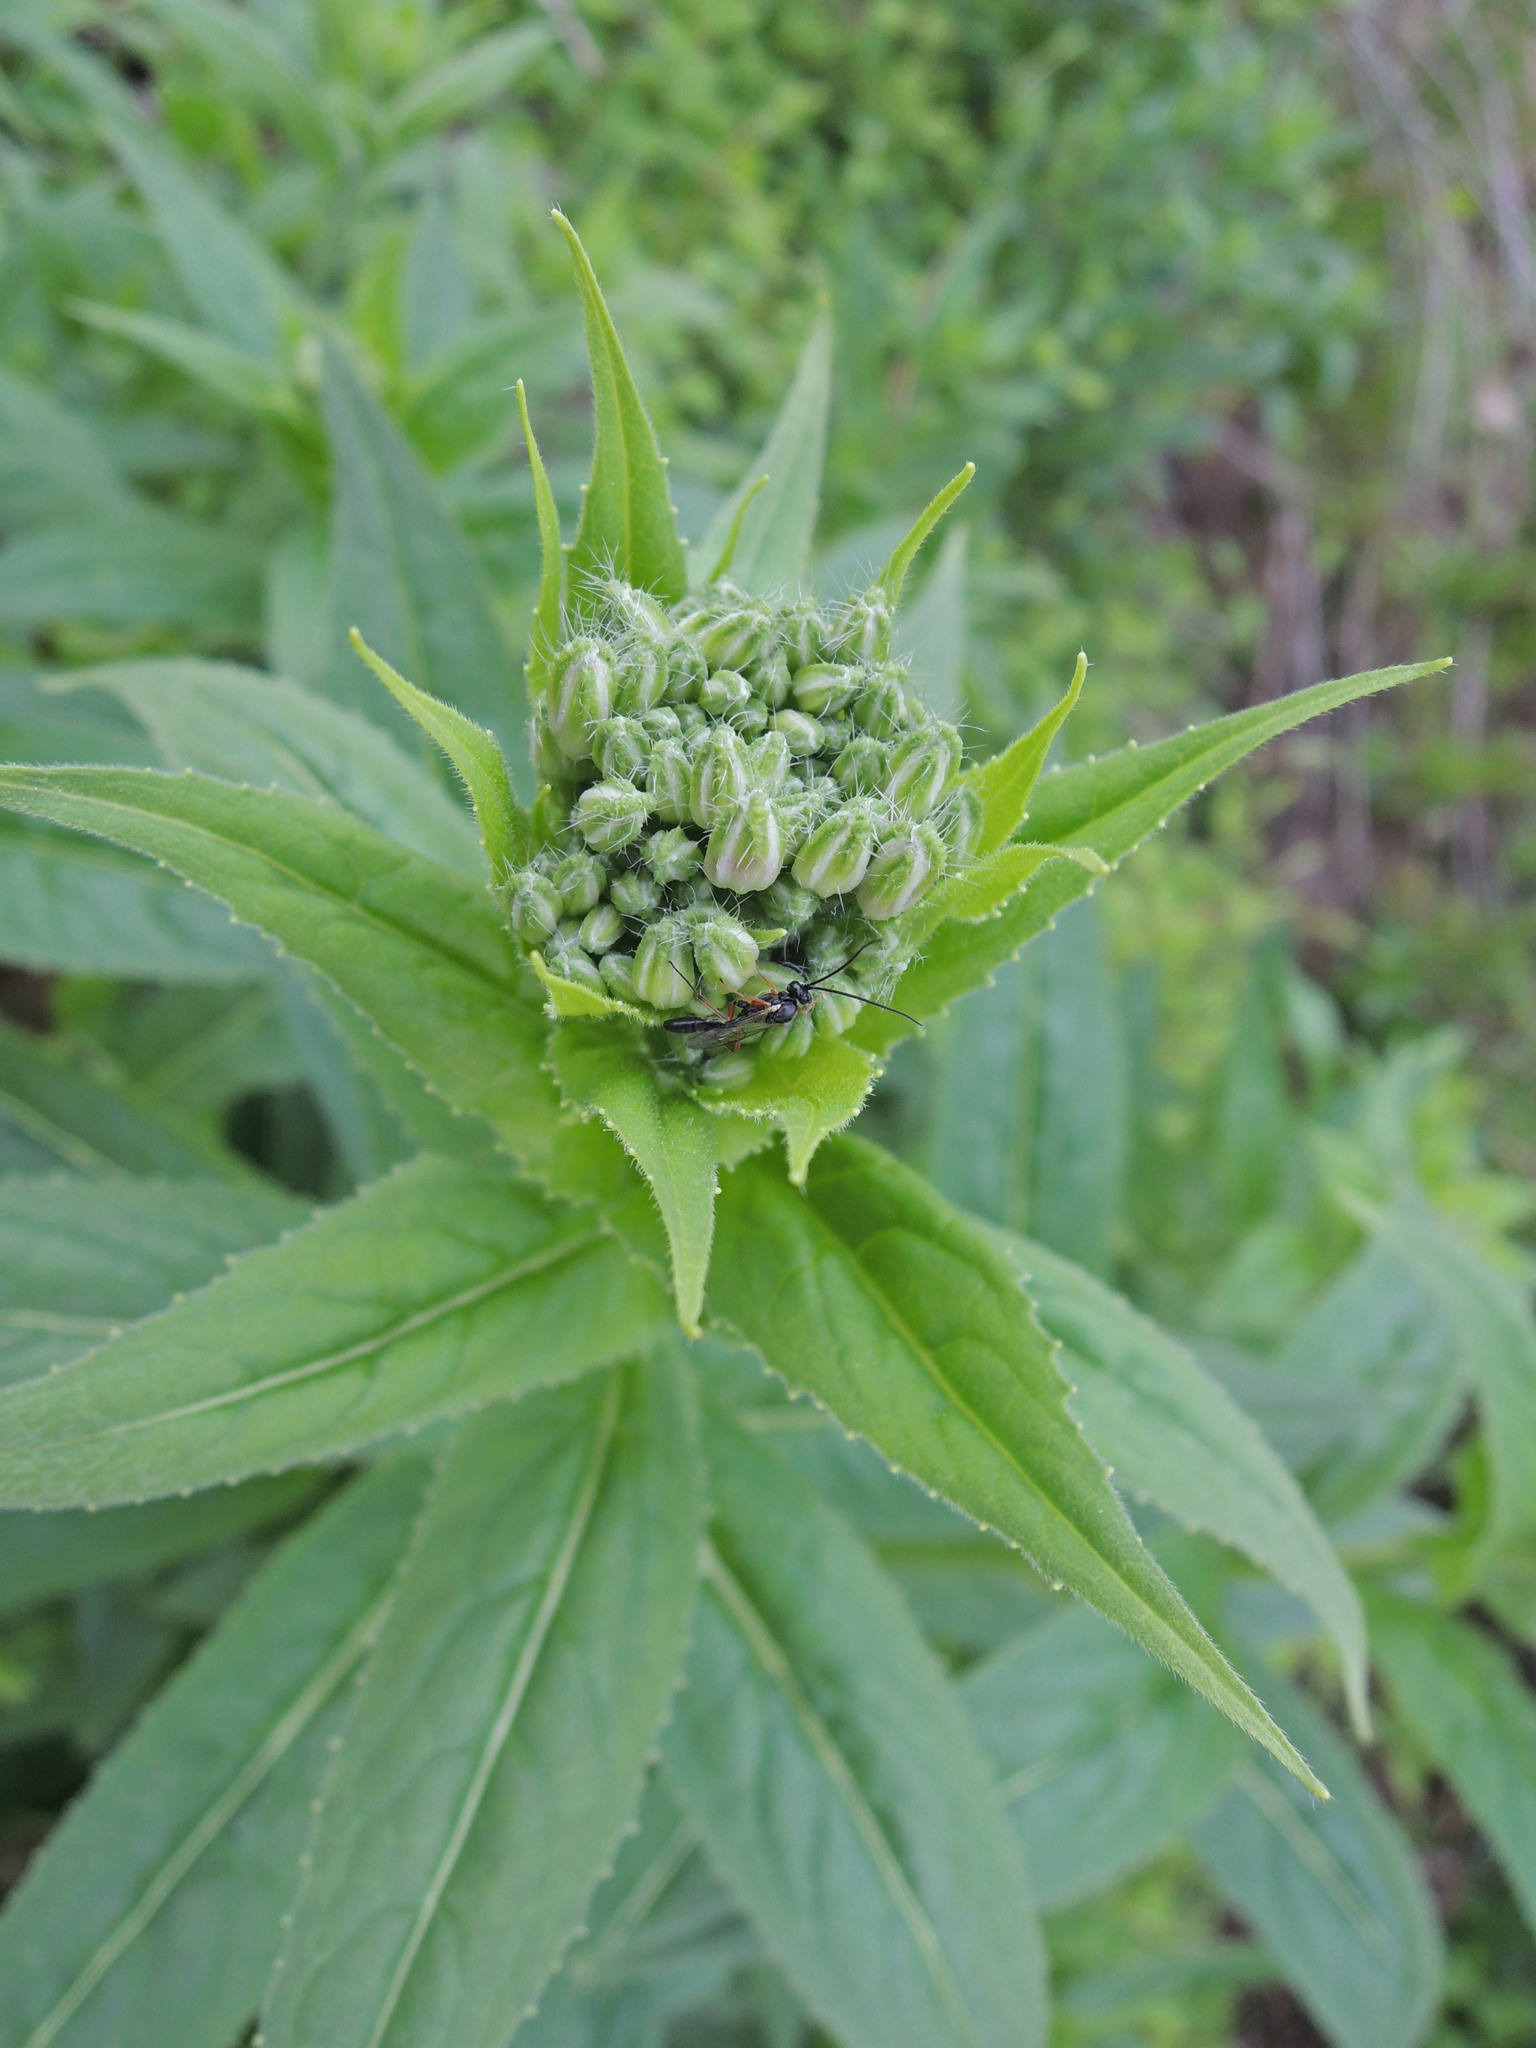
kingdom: Plantae
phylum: Tracheophyta
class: Magnoliopsida
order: Brassicales
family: Brassicaceae
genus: Hesperis
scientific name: Hesperis matronalis
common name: Dame's-violet
